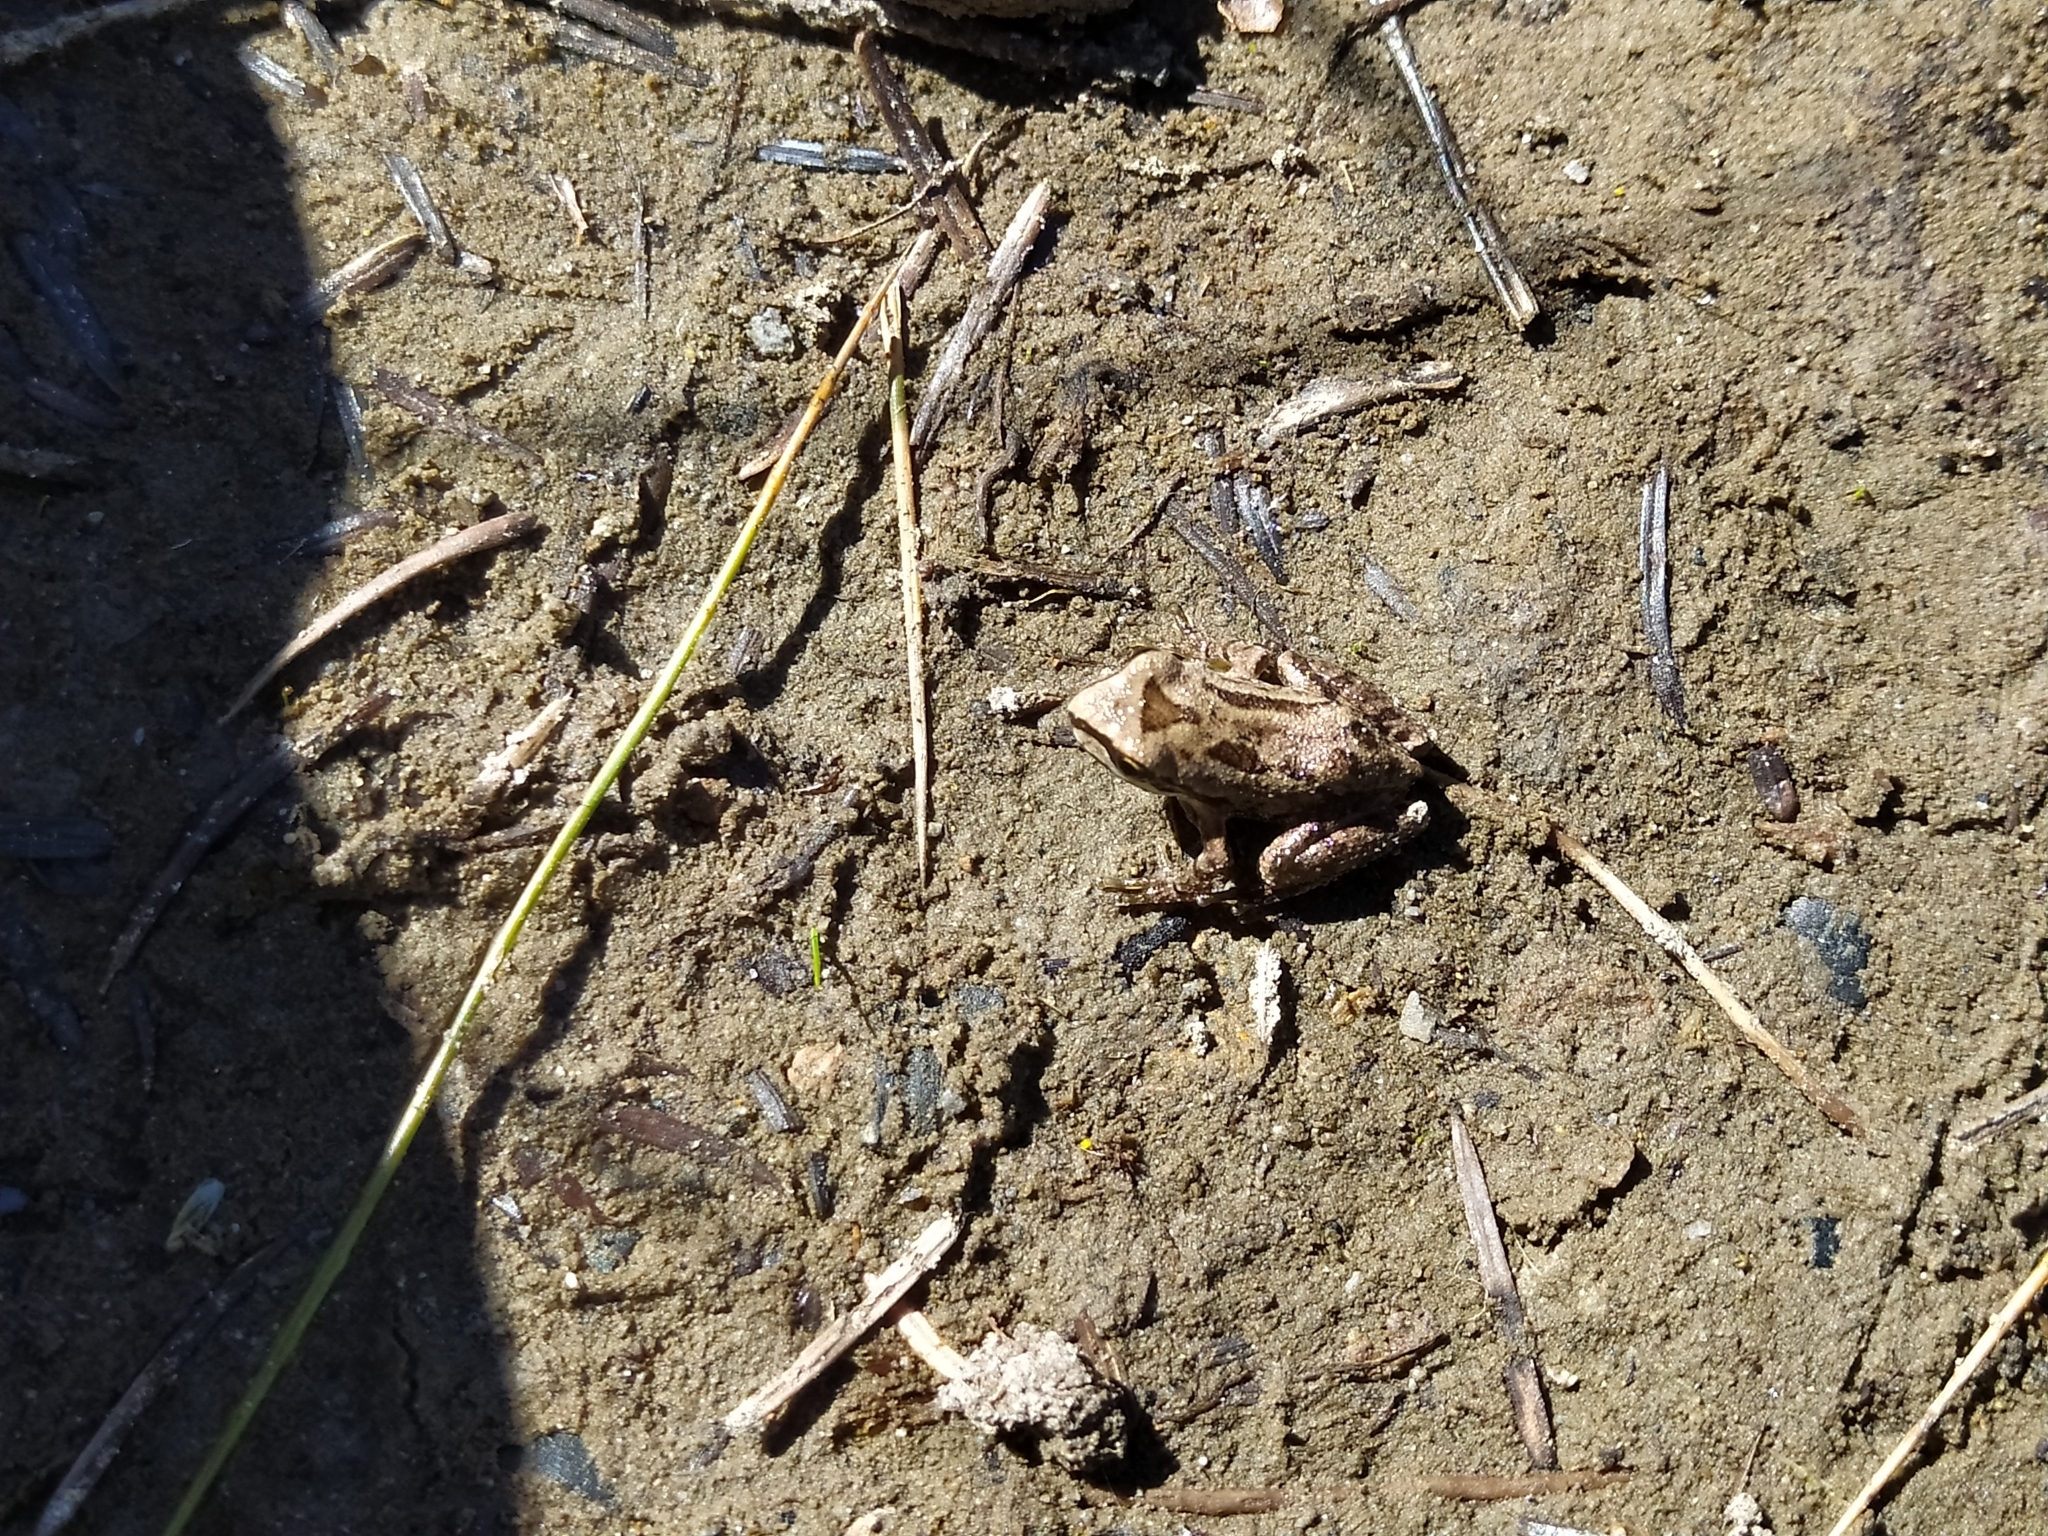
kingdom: Animalia
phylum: Chordata
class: Amphibia
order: Anura
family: Hylidae
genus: Pseudacris
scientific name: Pseudacris regilla
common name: Pacific chorus frog
